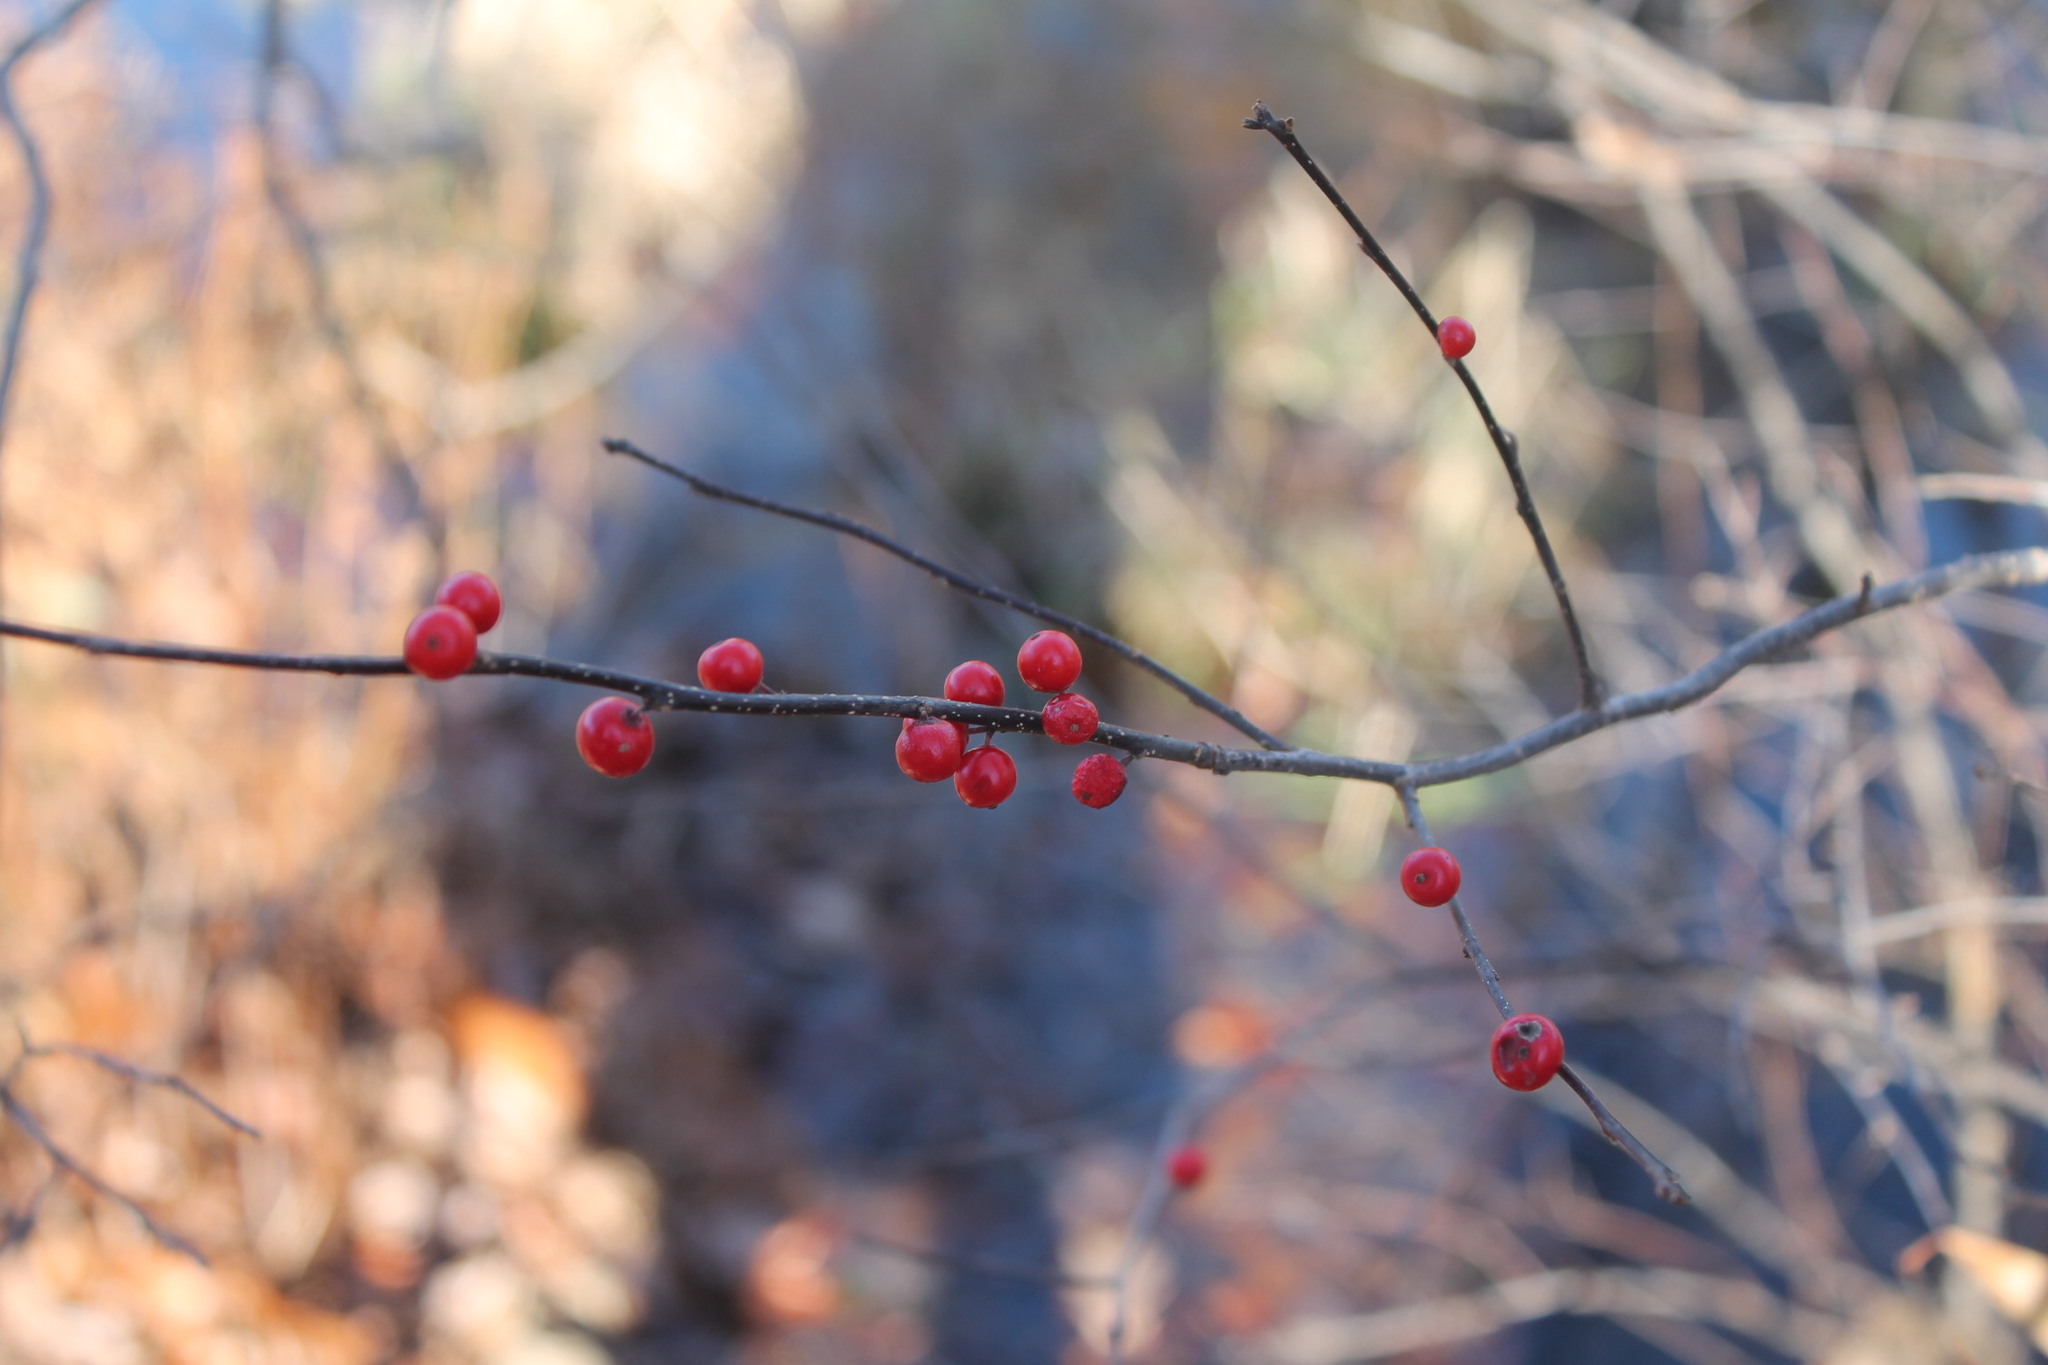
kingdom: Plantae
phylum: Tracheophyta
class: Magnoliopsida
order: Aquifoliales
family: Aquifoliaceae
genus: Ilex
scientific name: Ilex verticillata
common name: Virginia winterberry
